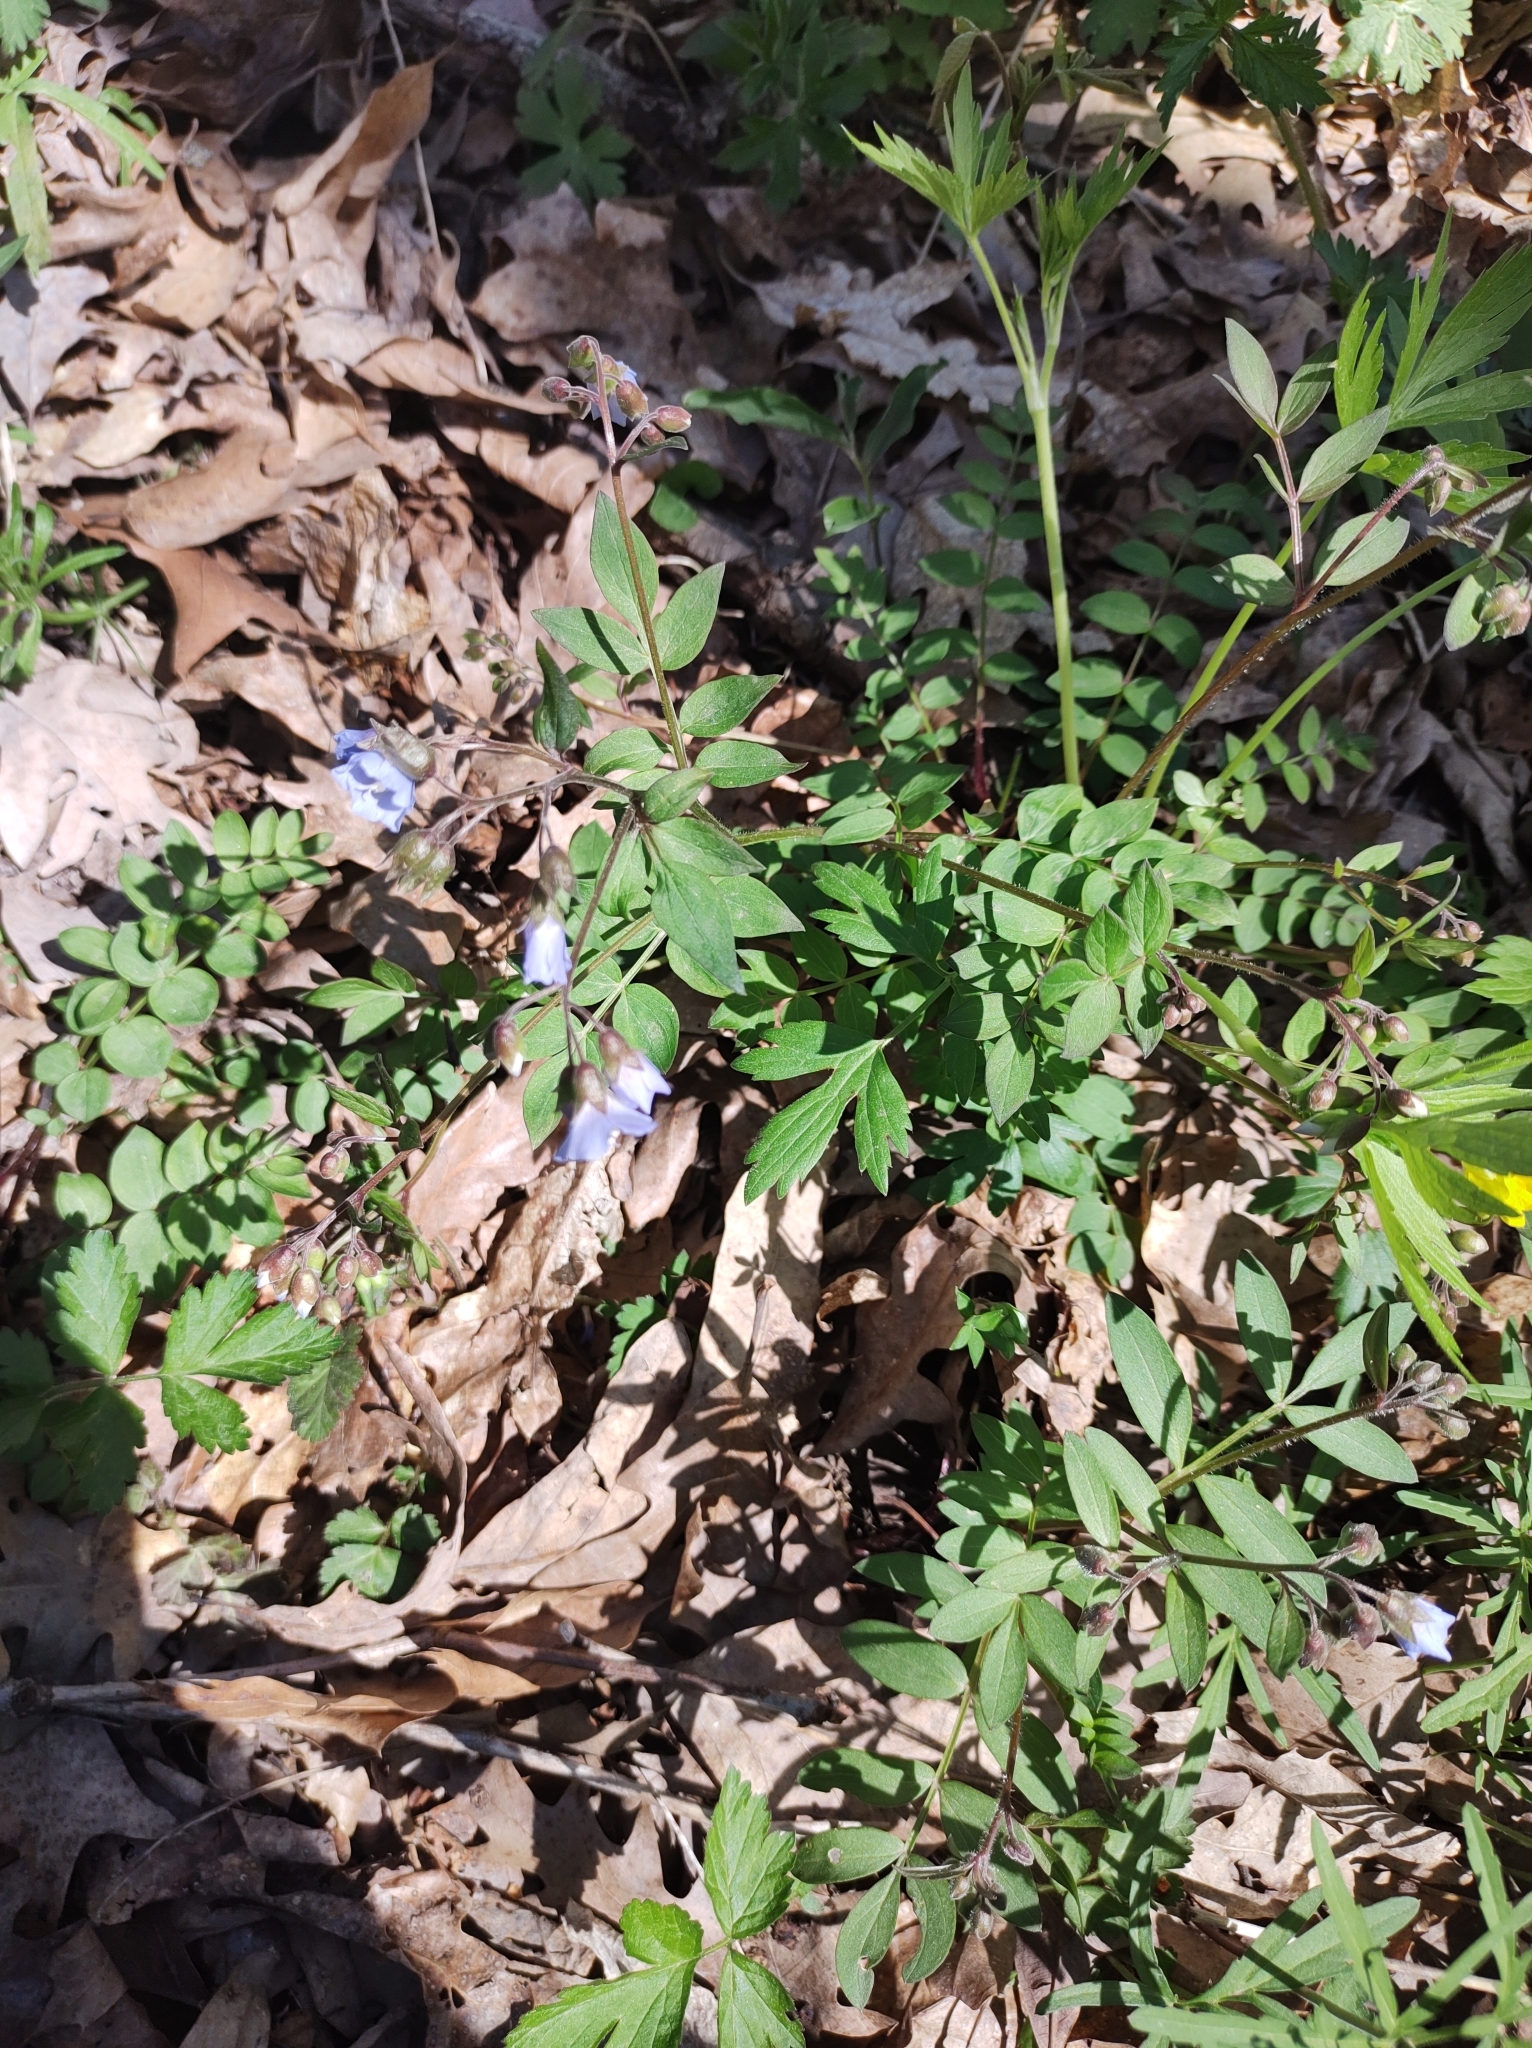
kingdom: Plantae
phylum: Tracheophyta
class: Magnoliopsida
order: Ericales
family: Polemoniaceae
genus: Polemonium
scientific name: Polemonium reptans
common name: Creeping jacob's-ladder
